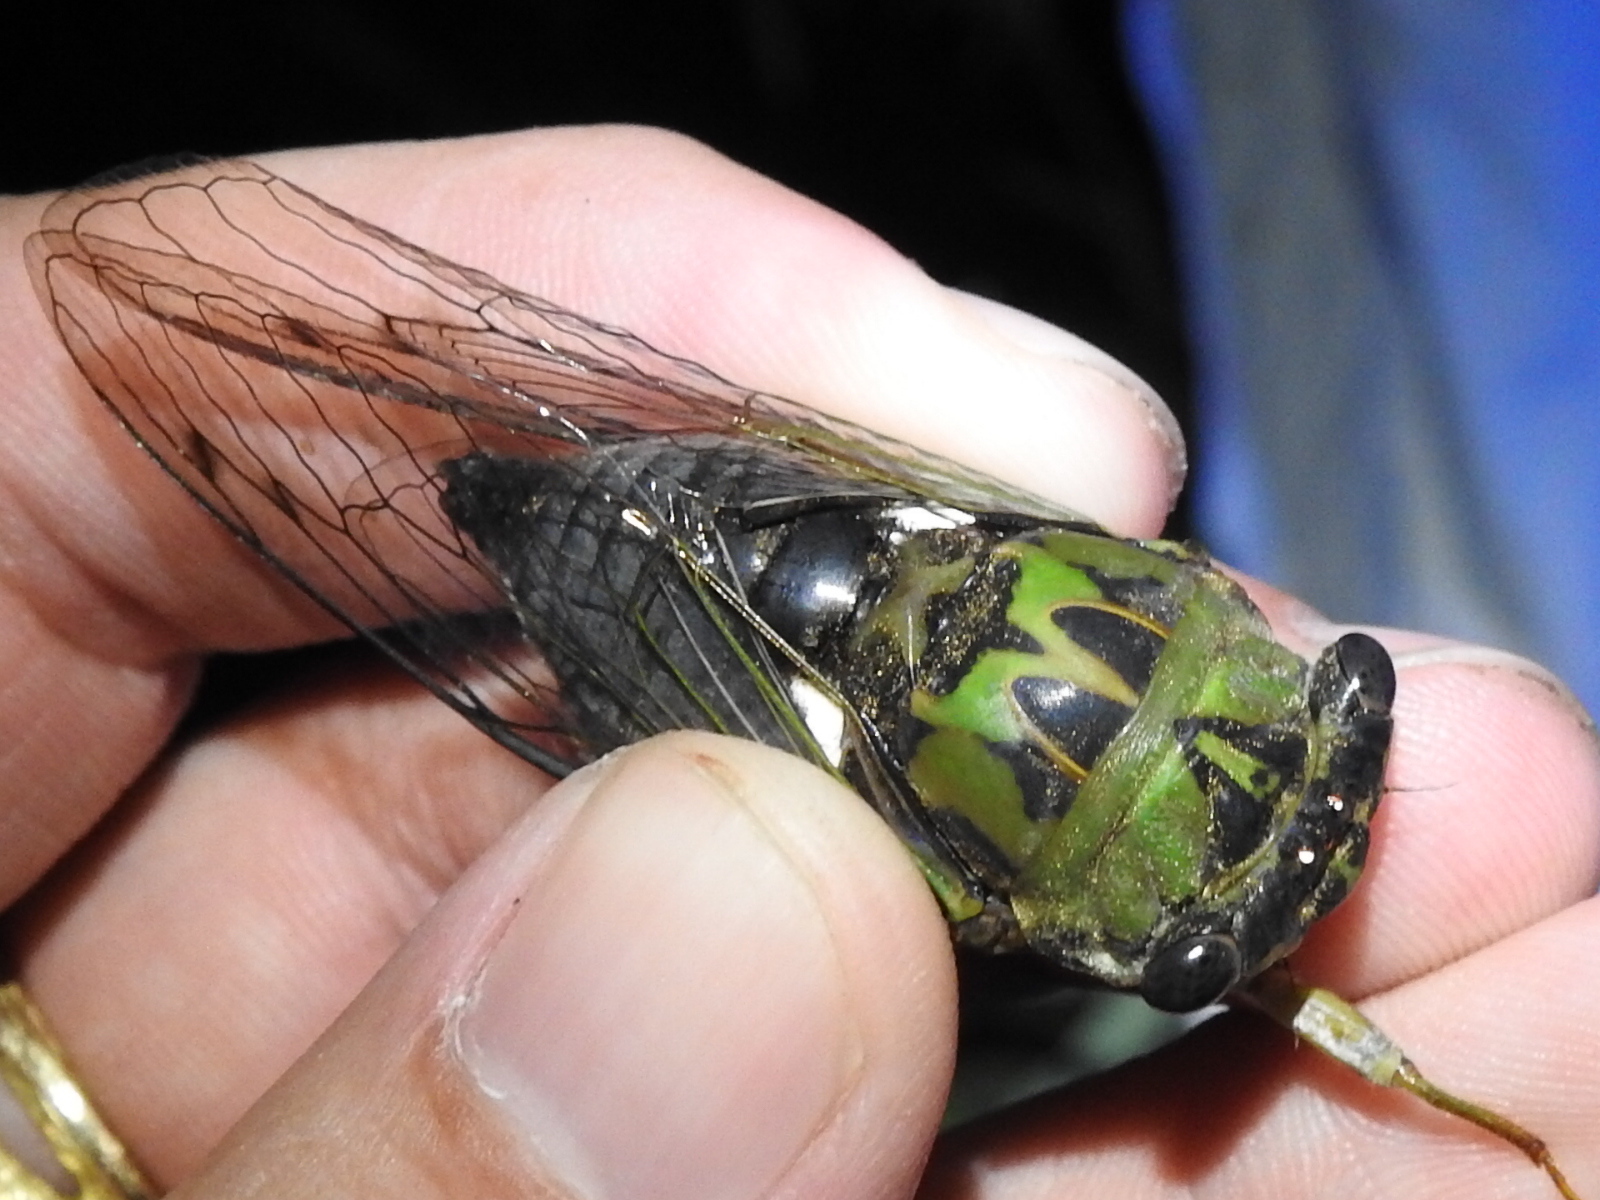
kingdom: Animalia
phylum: Arthropoda
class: Insecta
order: Hemiptera
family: Cicadidae
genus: Neotibicen
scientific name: Neotibicen pruinosus
